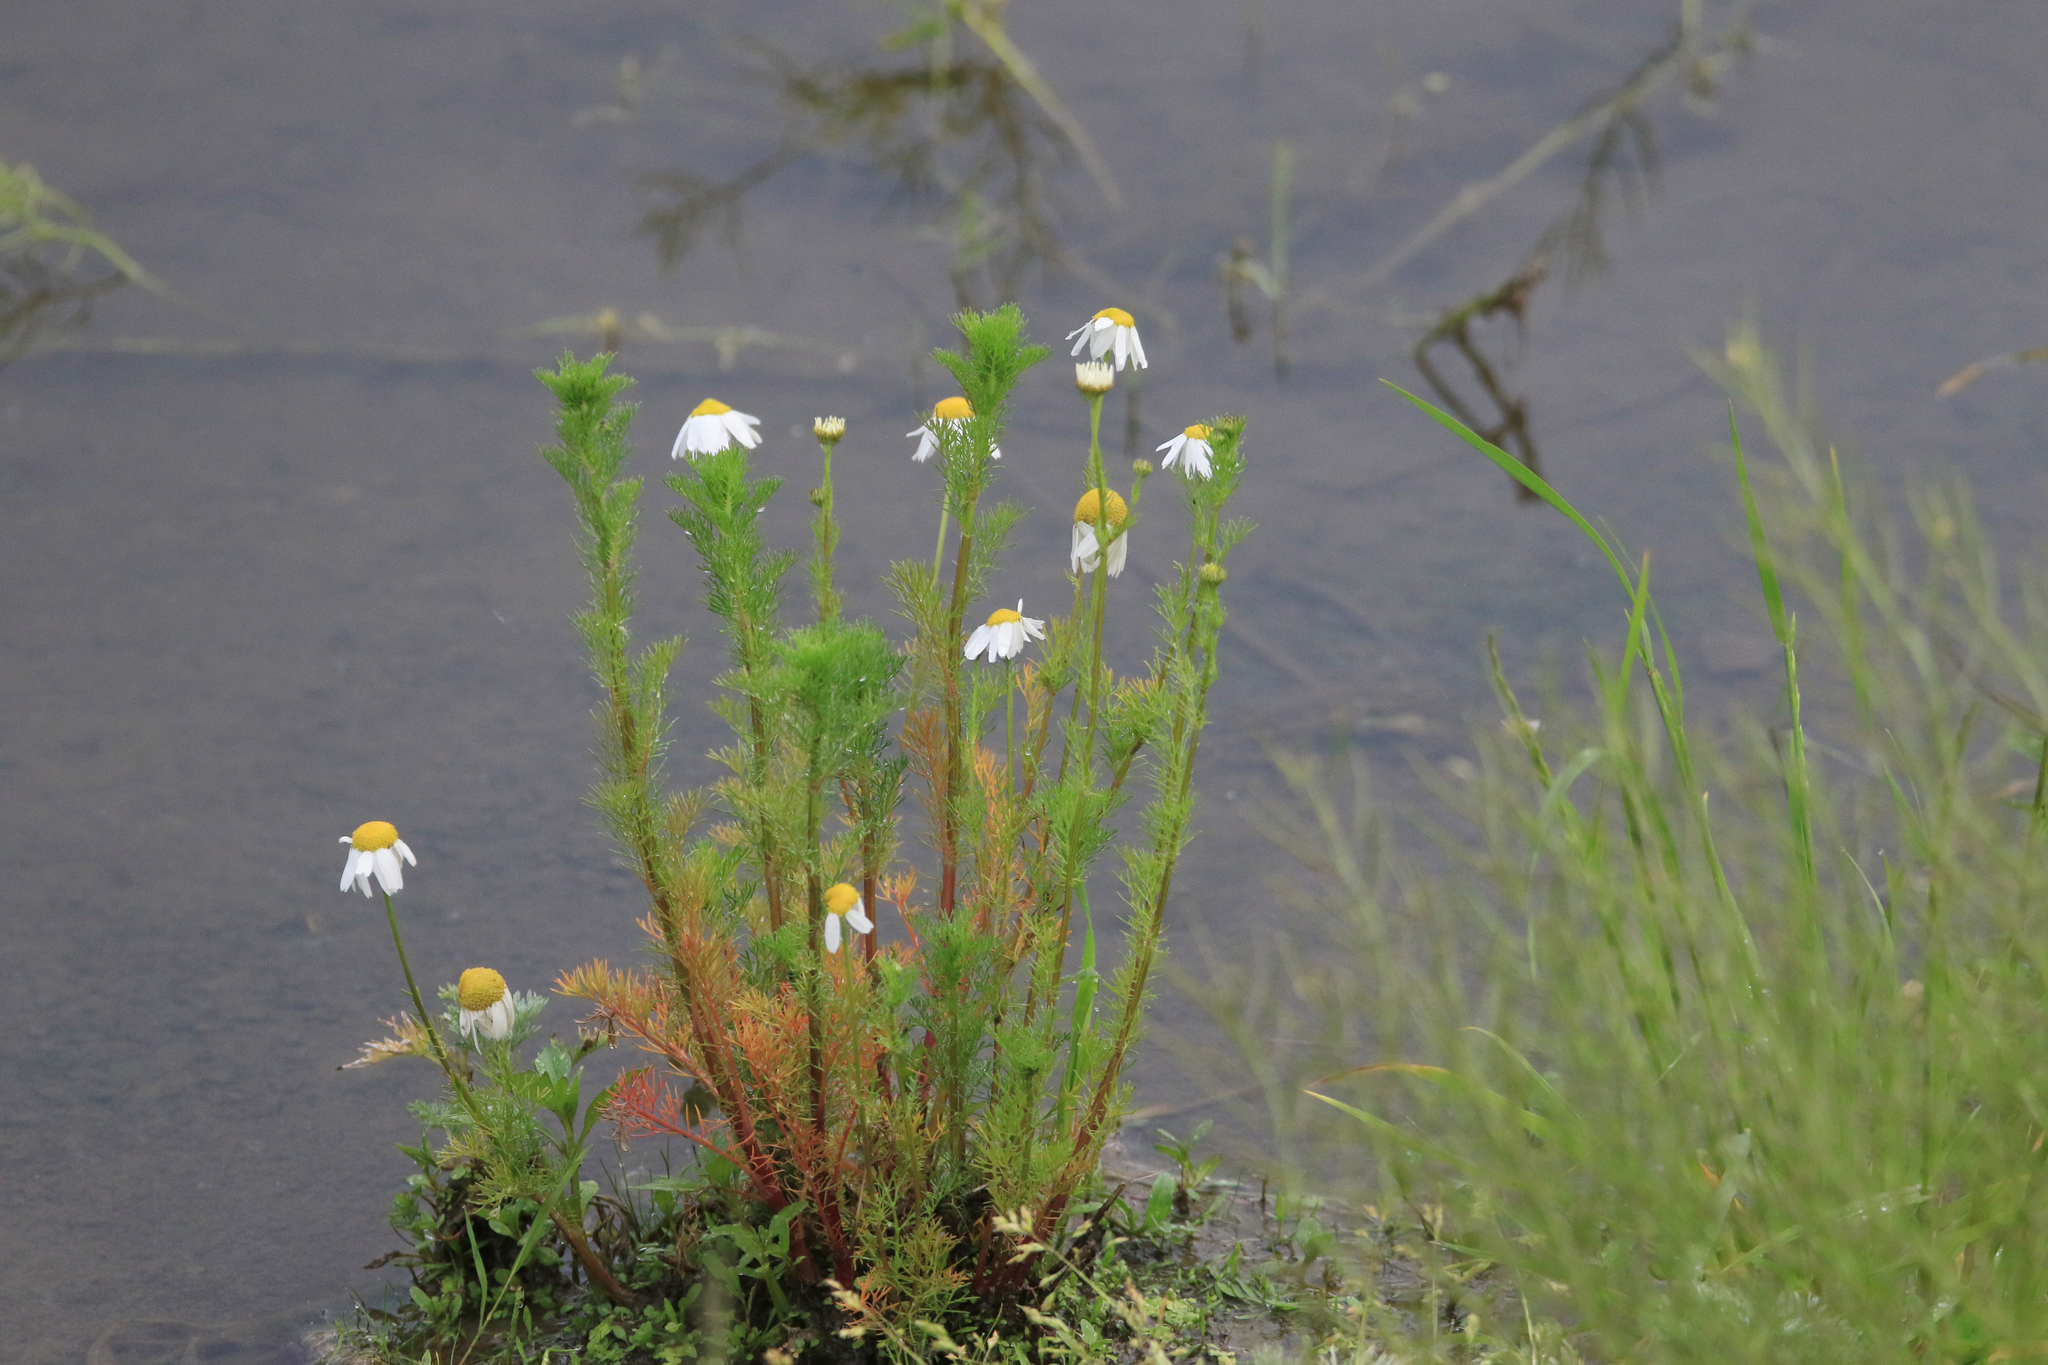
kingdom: Plantae
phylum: Tracheophyta
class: Magnoliopsida
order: Asterales
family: Asteraceae
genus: Tripleurospermum
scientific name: Tripleurospermum inodorum
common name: Scentless mayweed
